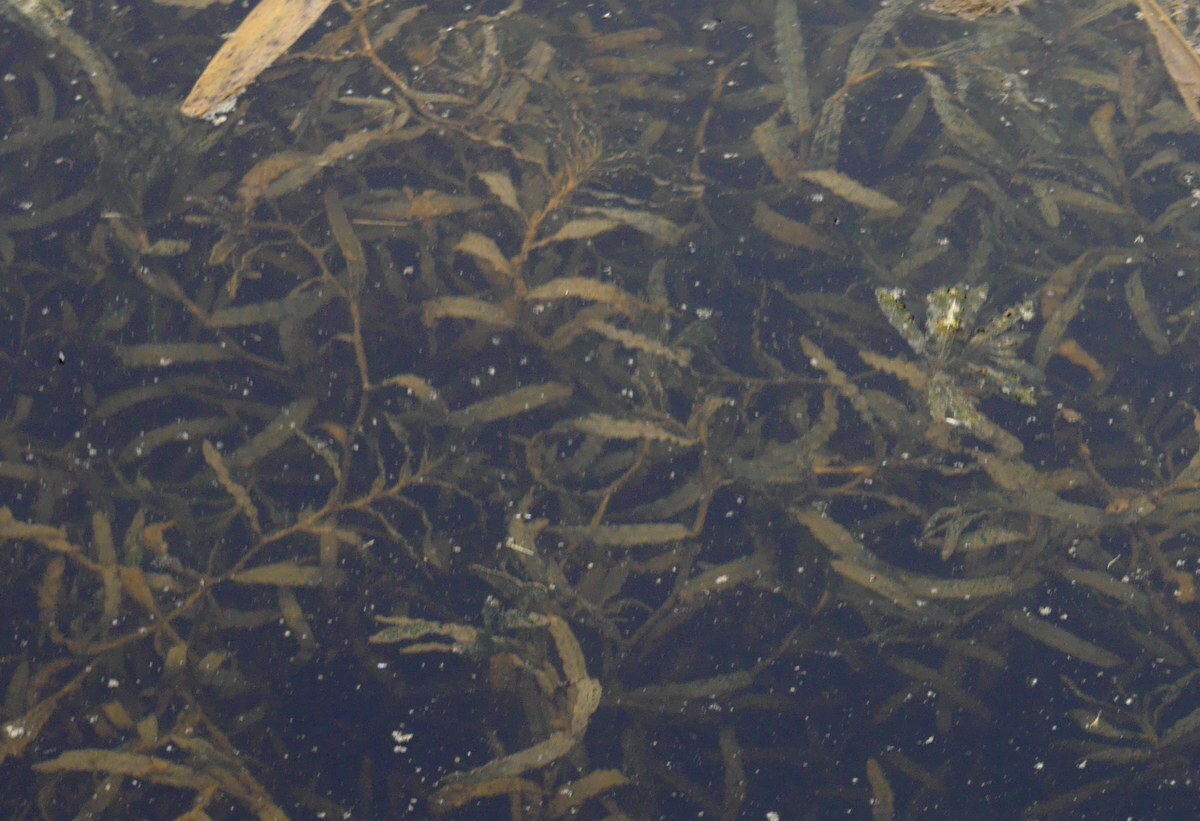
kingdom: Plantae
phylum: Tracheophyta
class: Liliopsida
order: Alismatales
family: Potamogetonaceae
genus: Potamogeton
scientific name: Potamogeton crispus
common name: Curled pondweed
